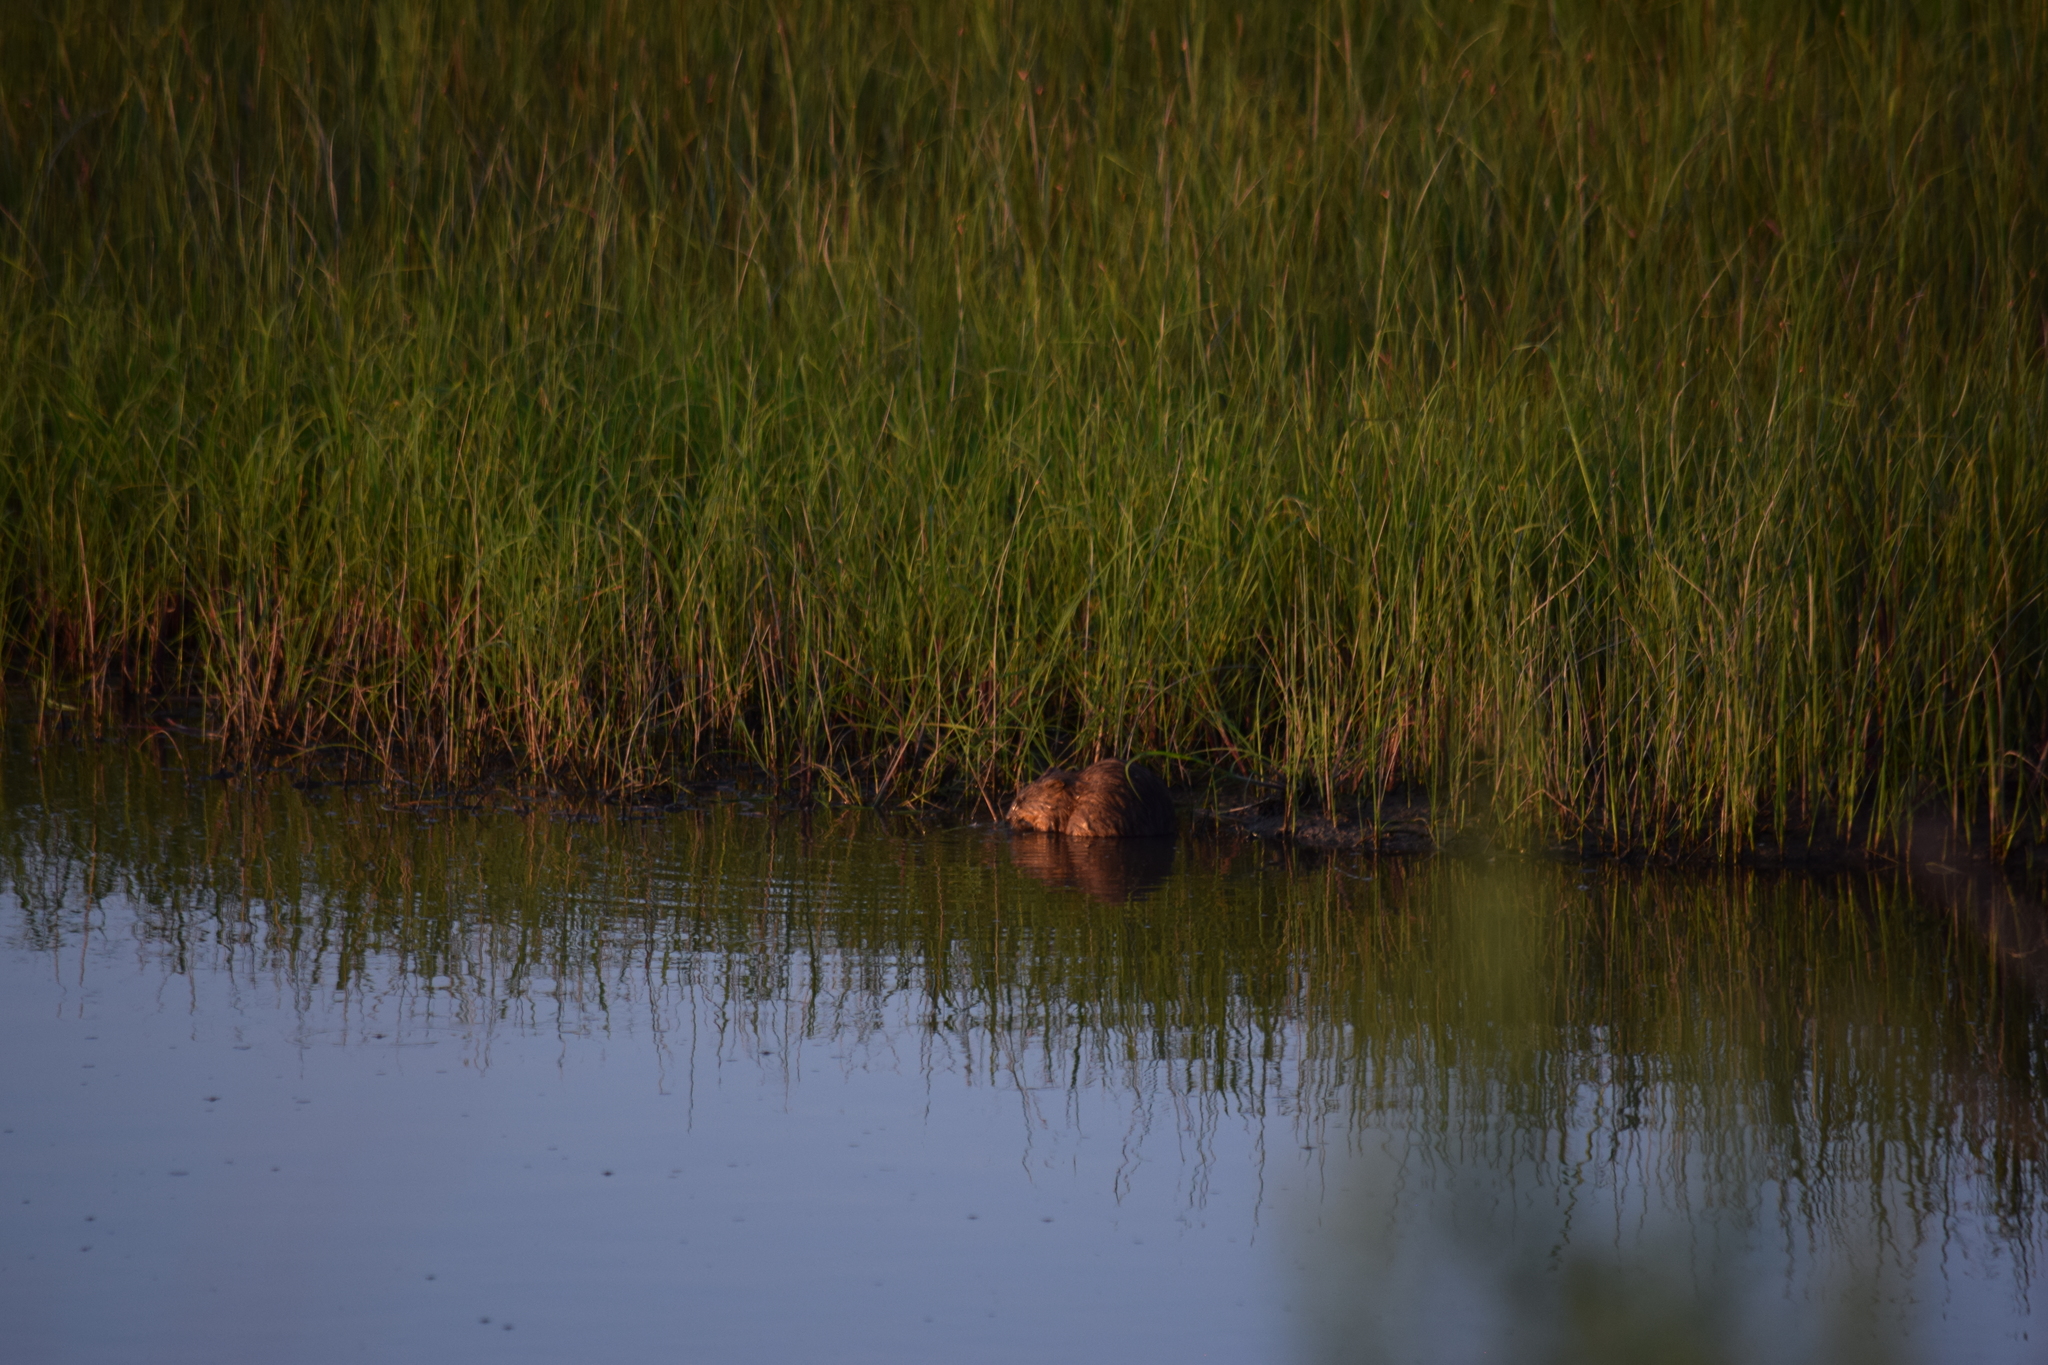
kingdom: Animalia
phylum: Chordata
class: Mammalia
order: Rodentia
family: Cricetidae
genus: Ondatra
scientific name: Ondatra zibethicus
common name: Muskrat
